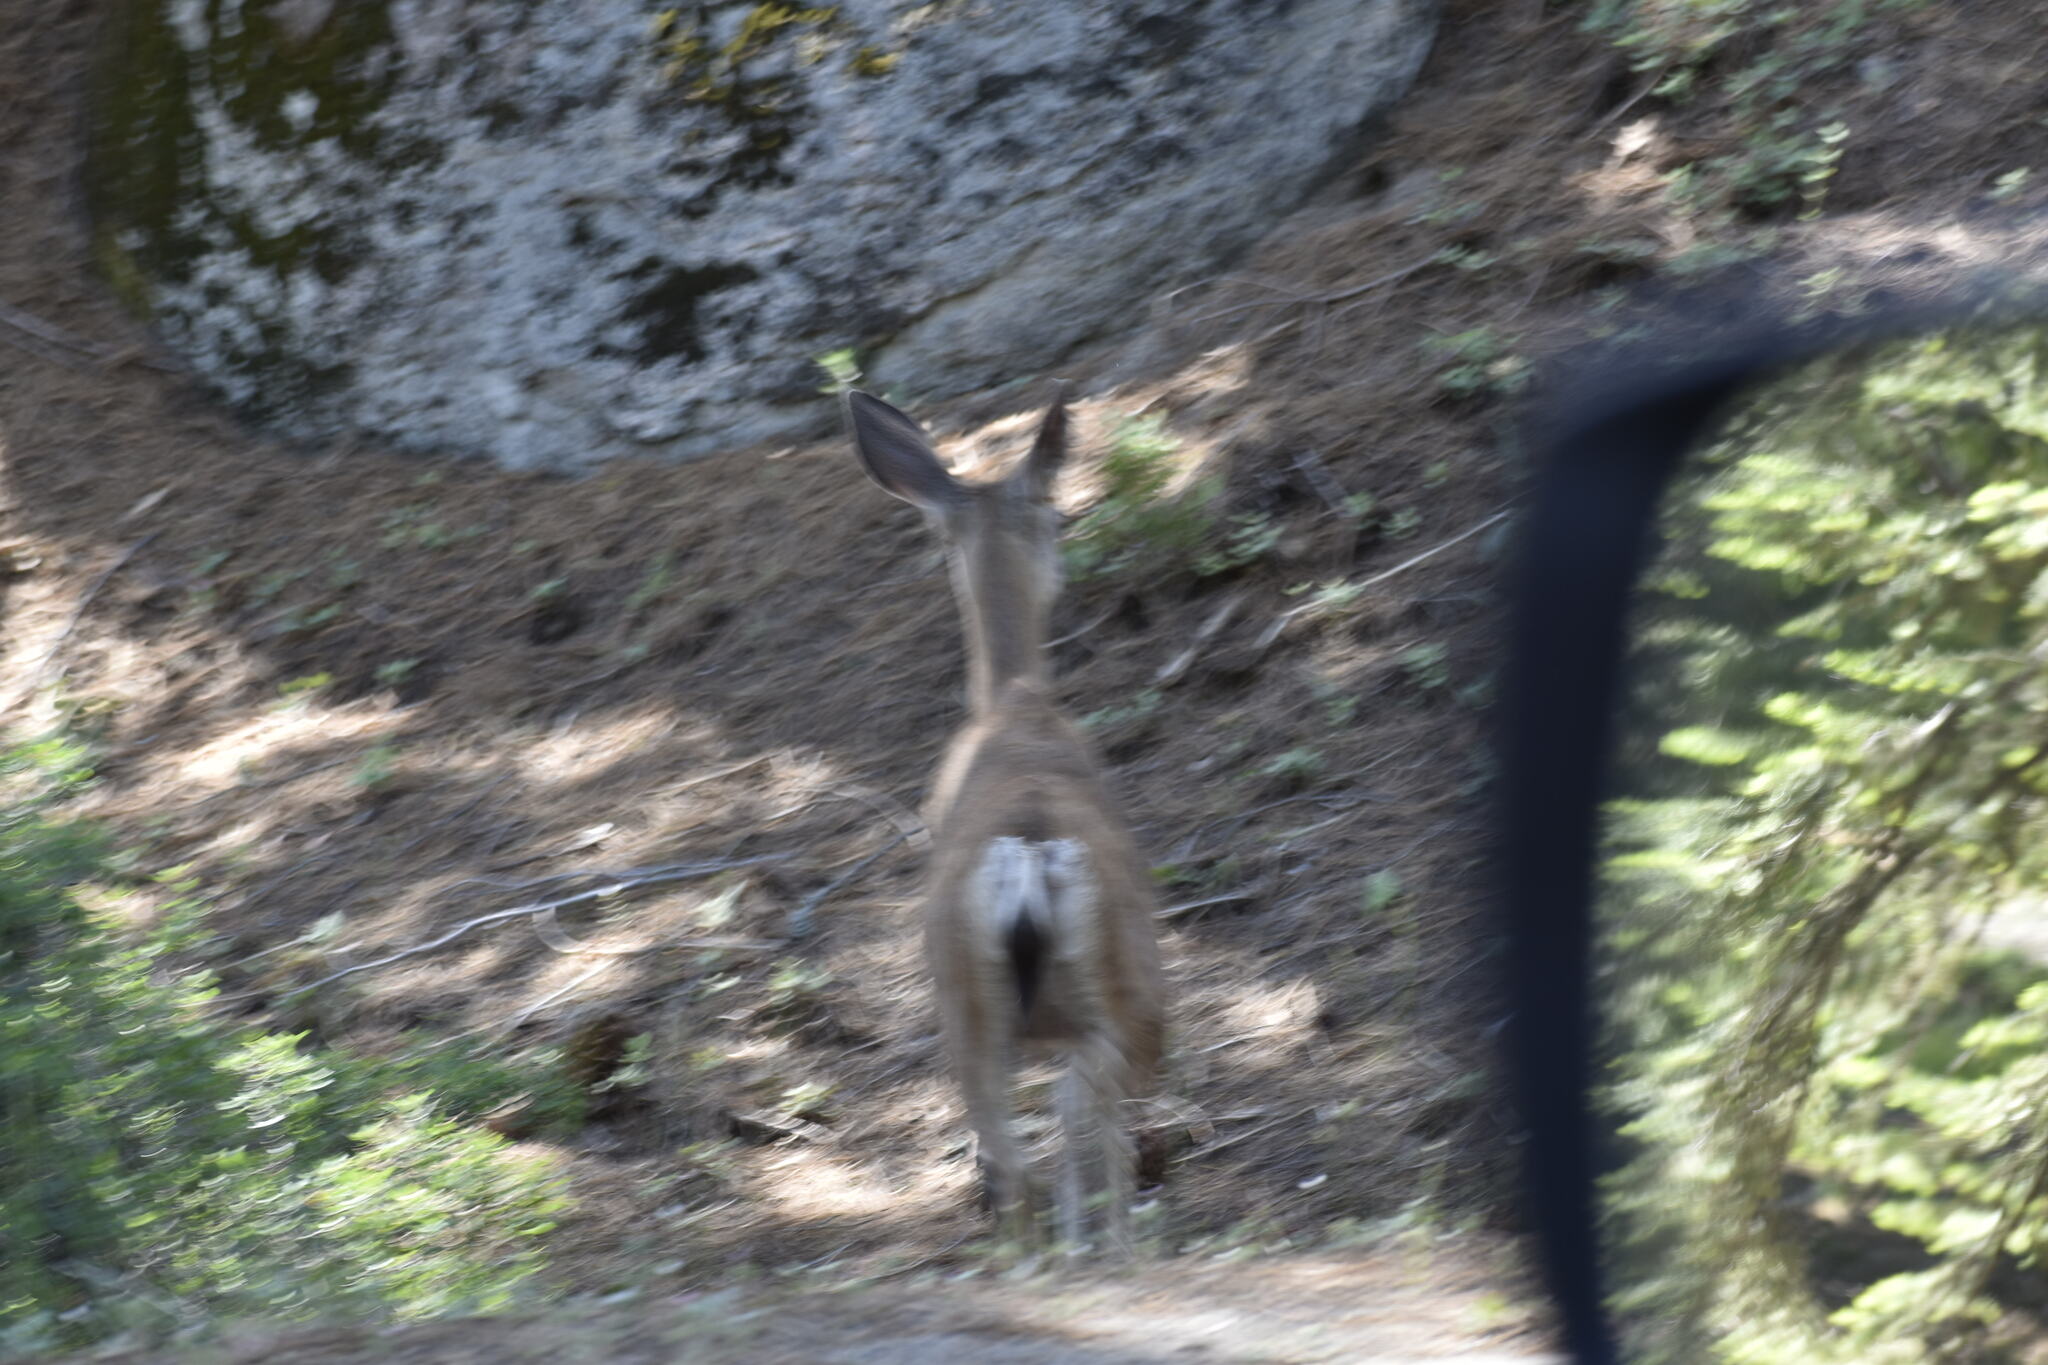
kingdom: Animalia
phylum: Chordata
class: Mammalia
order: Artiodactyla
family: Cervidae
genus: Odocoileus
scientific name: Odocoileus hemionus
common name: Mule deer
